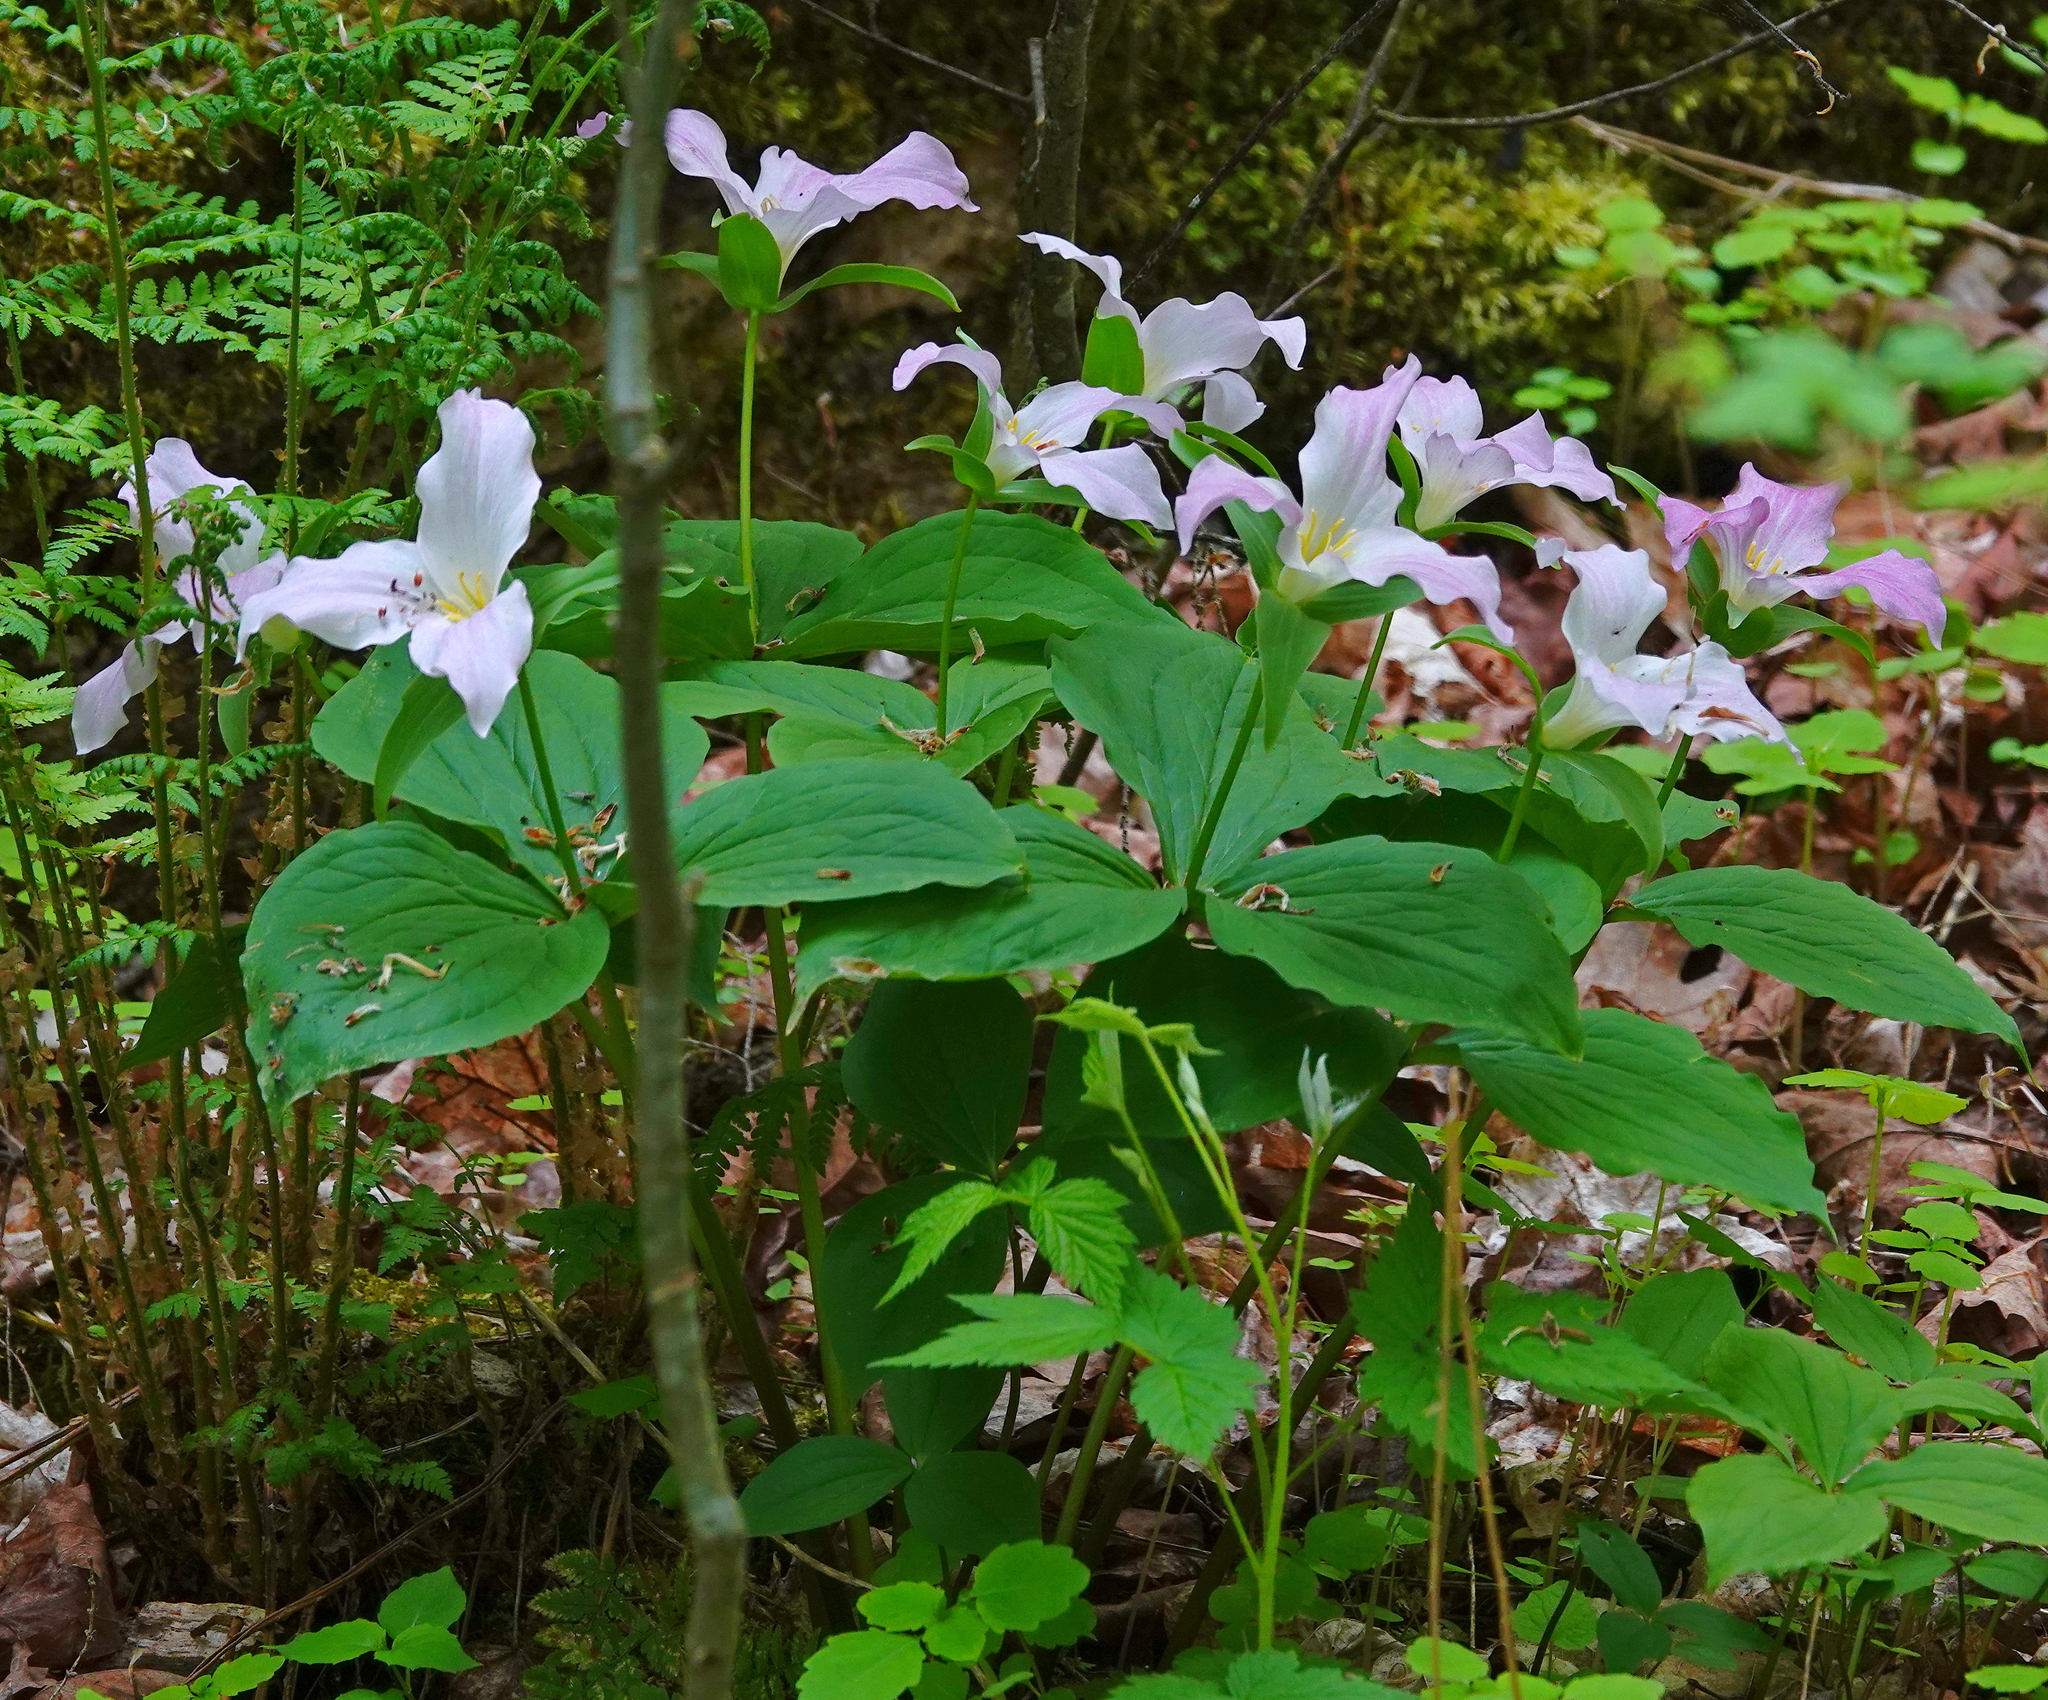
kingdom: Plantae
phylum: Tracheophyta
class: Liliopsida
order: Liliales
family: Melanthiaceae
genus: Trillium
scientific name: Trillium grandiflorum
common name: Great white trillium
